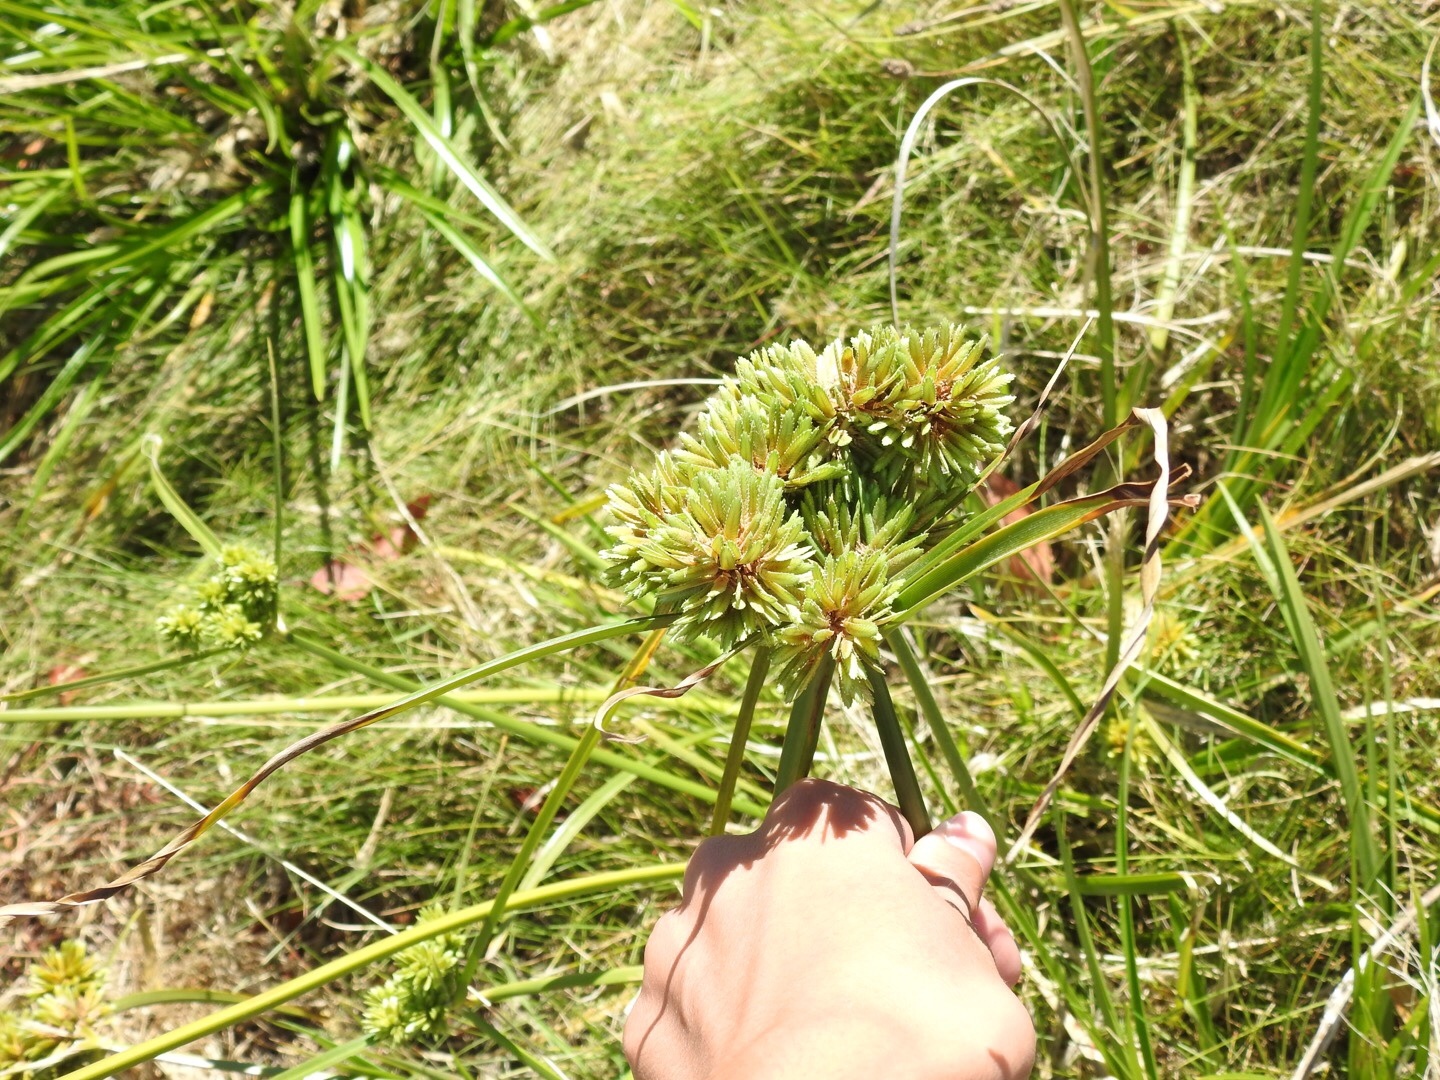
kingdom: Plantae
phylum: Tracheophyta
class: Liliopsida
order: Poales
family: Cyperaceae
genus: Cyperus
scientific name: Cyperus eragrostis
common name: Tall flatsedge
